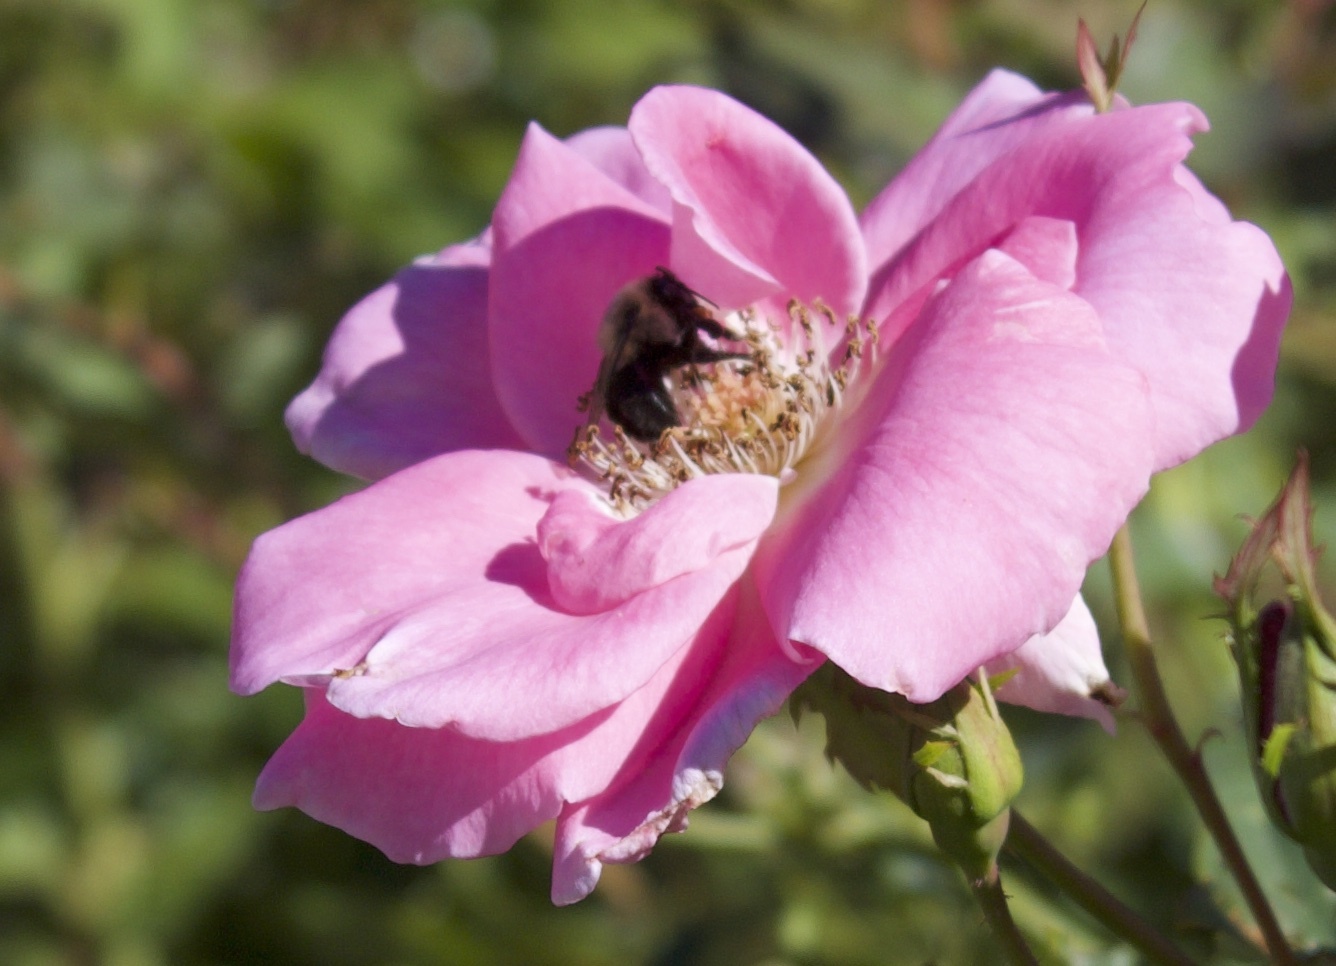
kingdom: Animalia
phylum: Arthropoda
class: Insecta
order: Hymenoptera
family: Apidae
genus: Bombus
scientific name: Bombus impatiens
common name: Common eastern bumble bee
